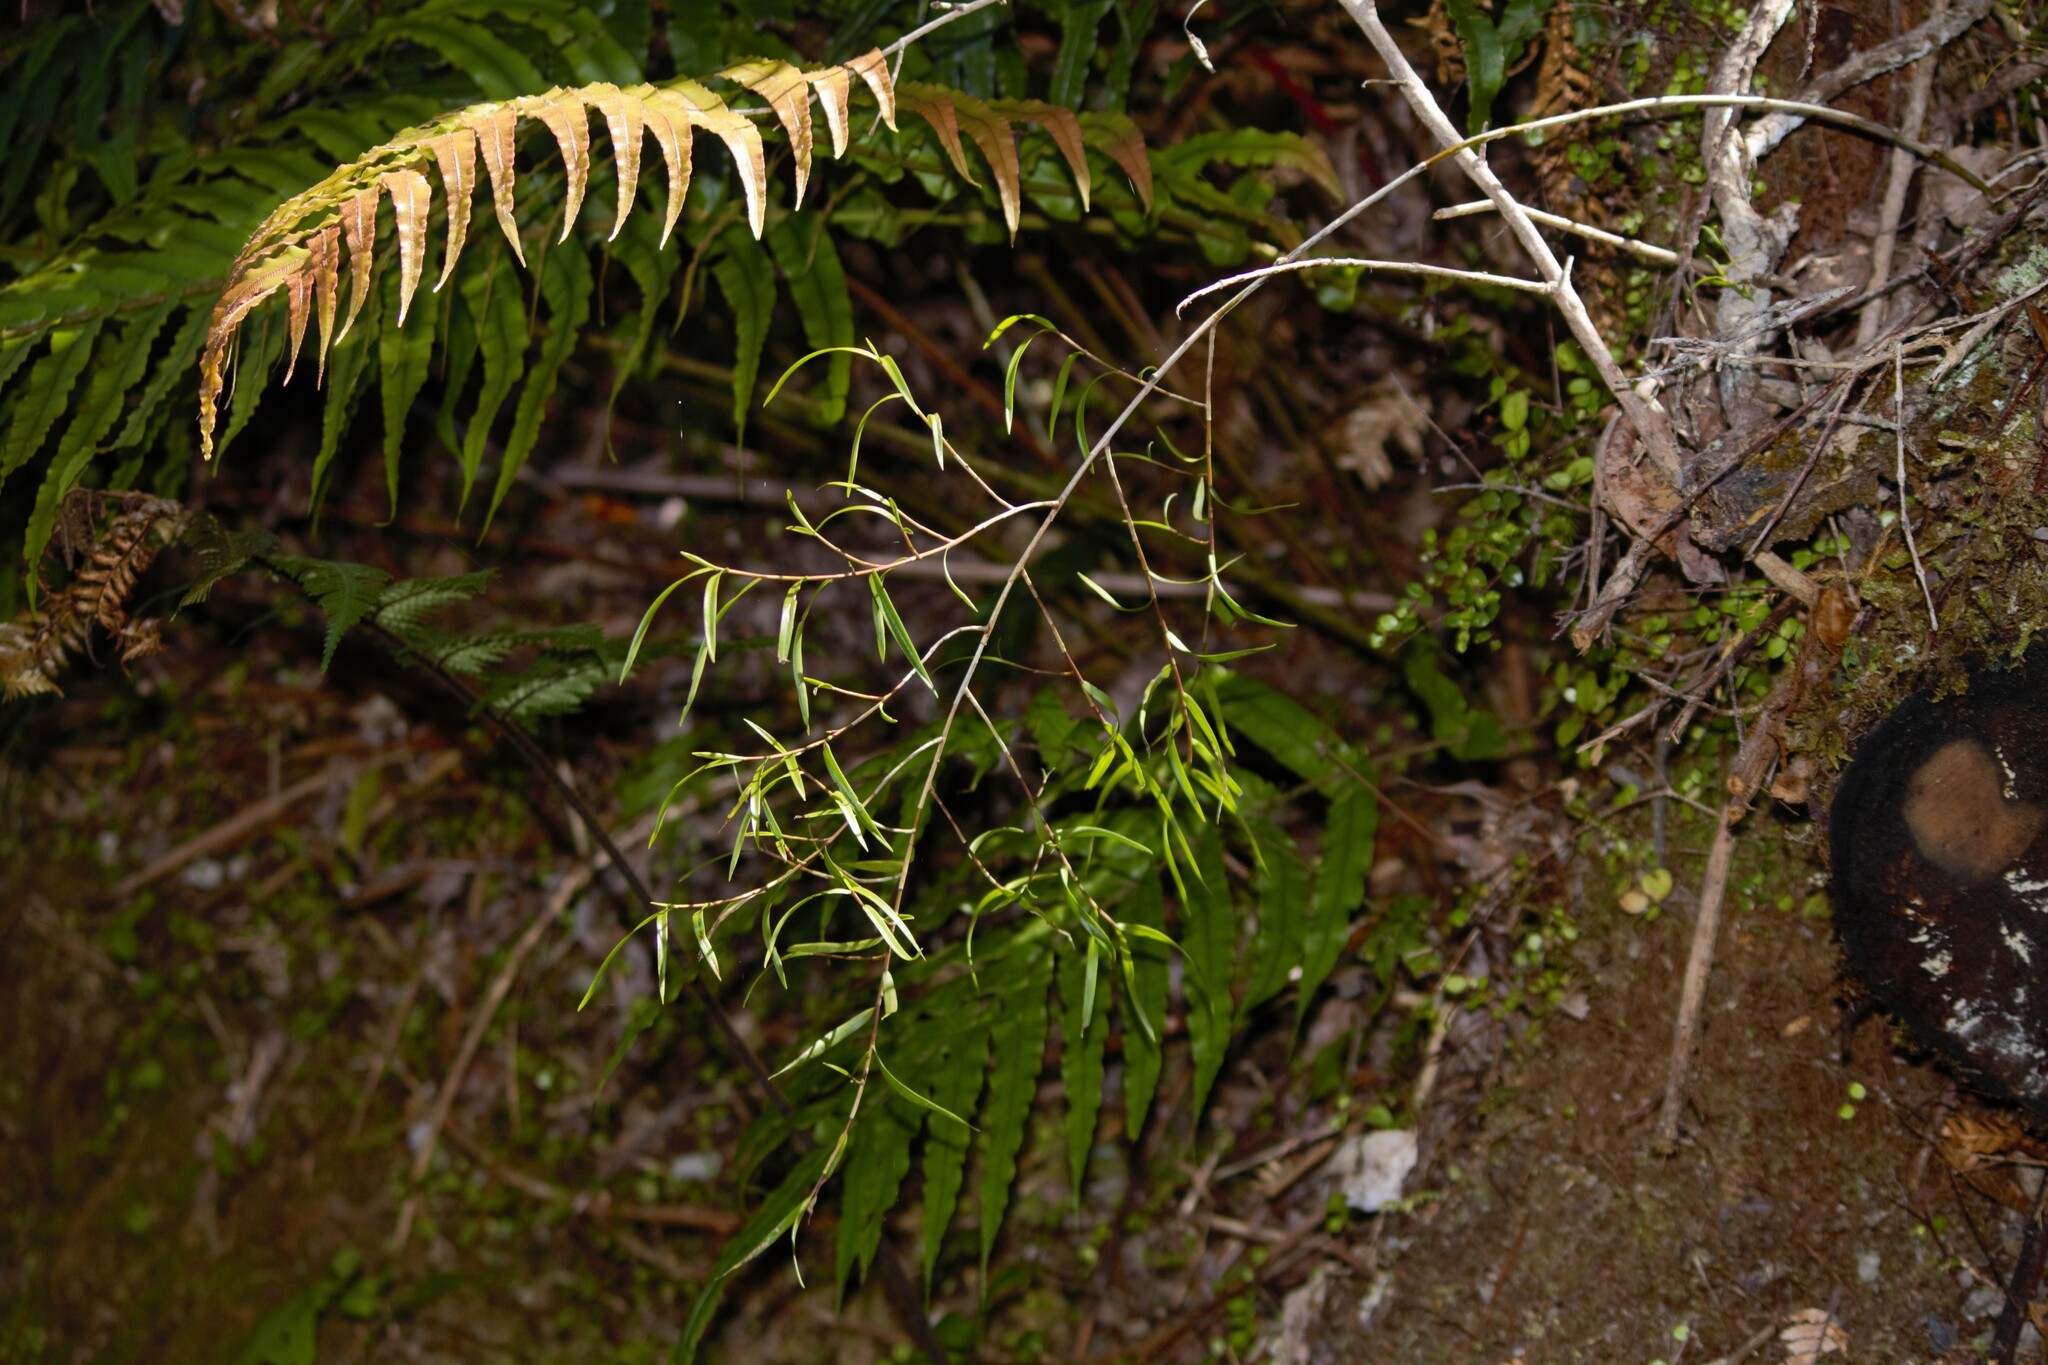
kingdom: Plantae
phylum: Tracheophyta
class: Liliopsida
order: Asparagales
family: Orchidaceae
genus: Dendrobium
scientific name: Dendrobium cunninghamii
